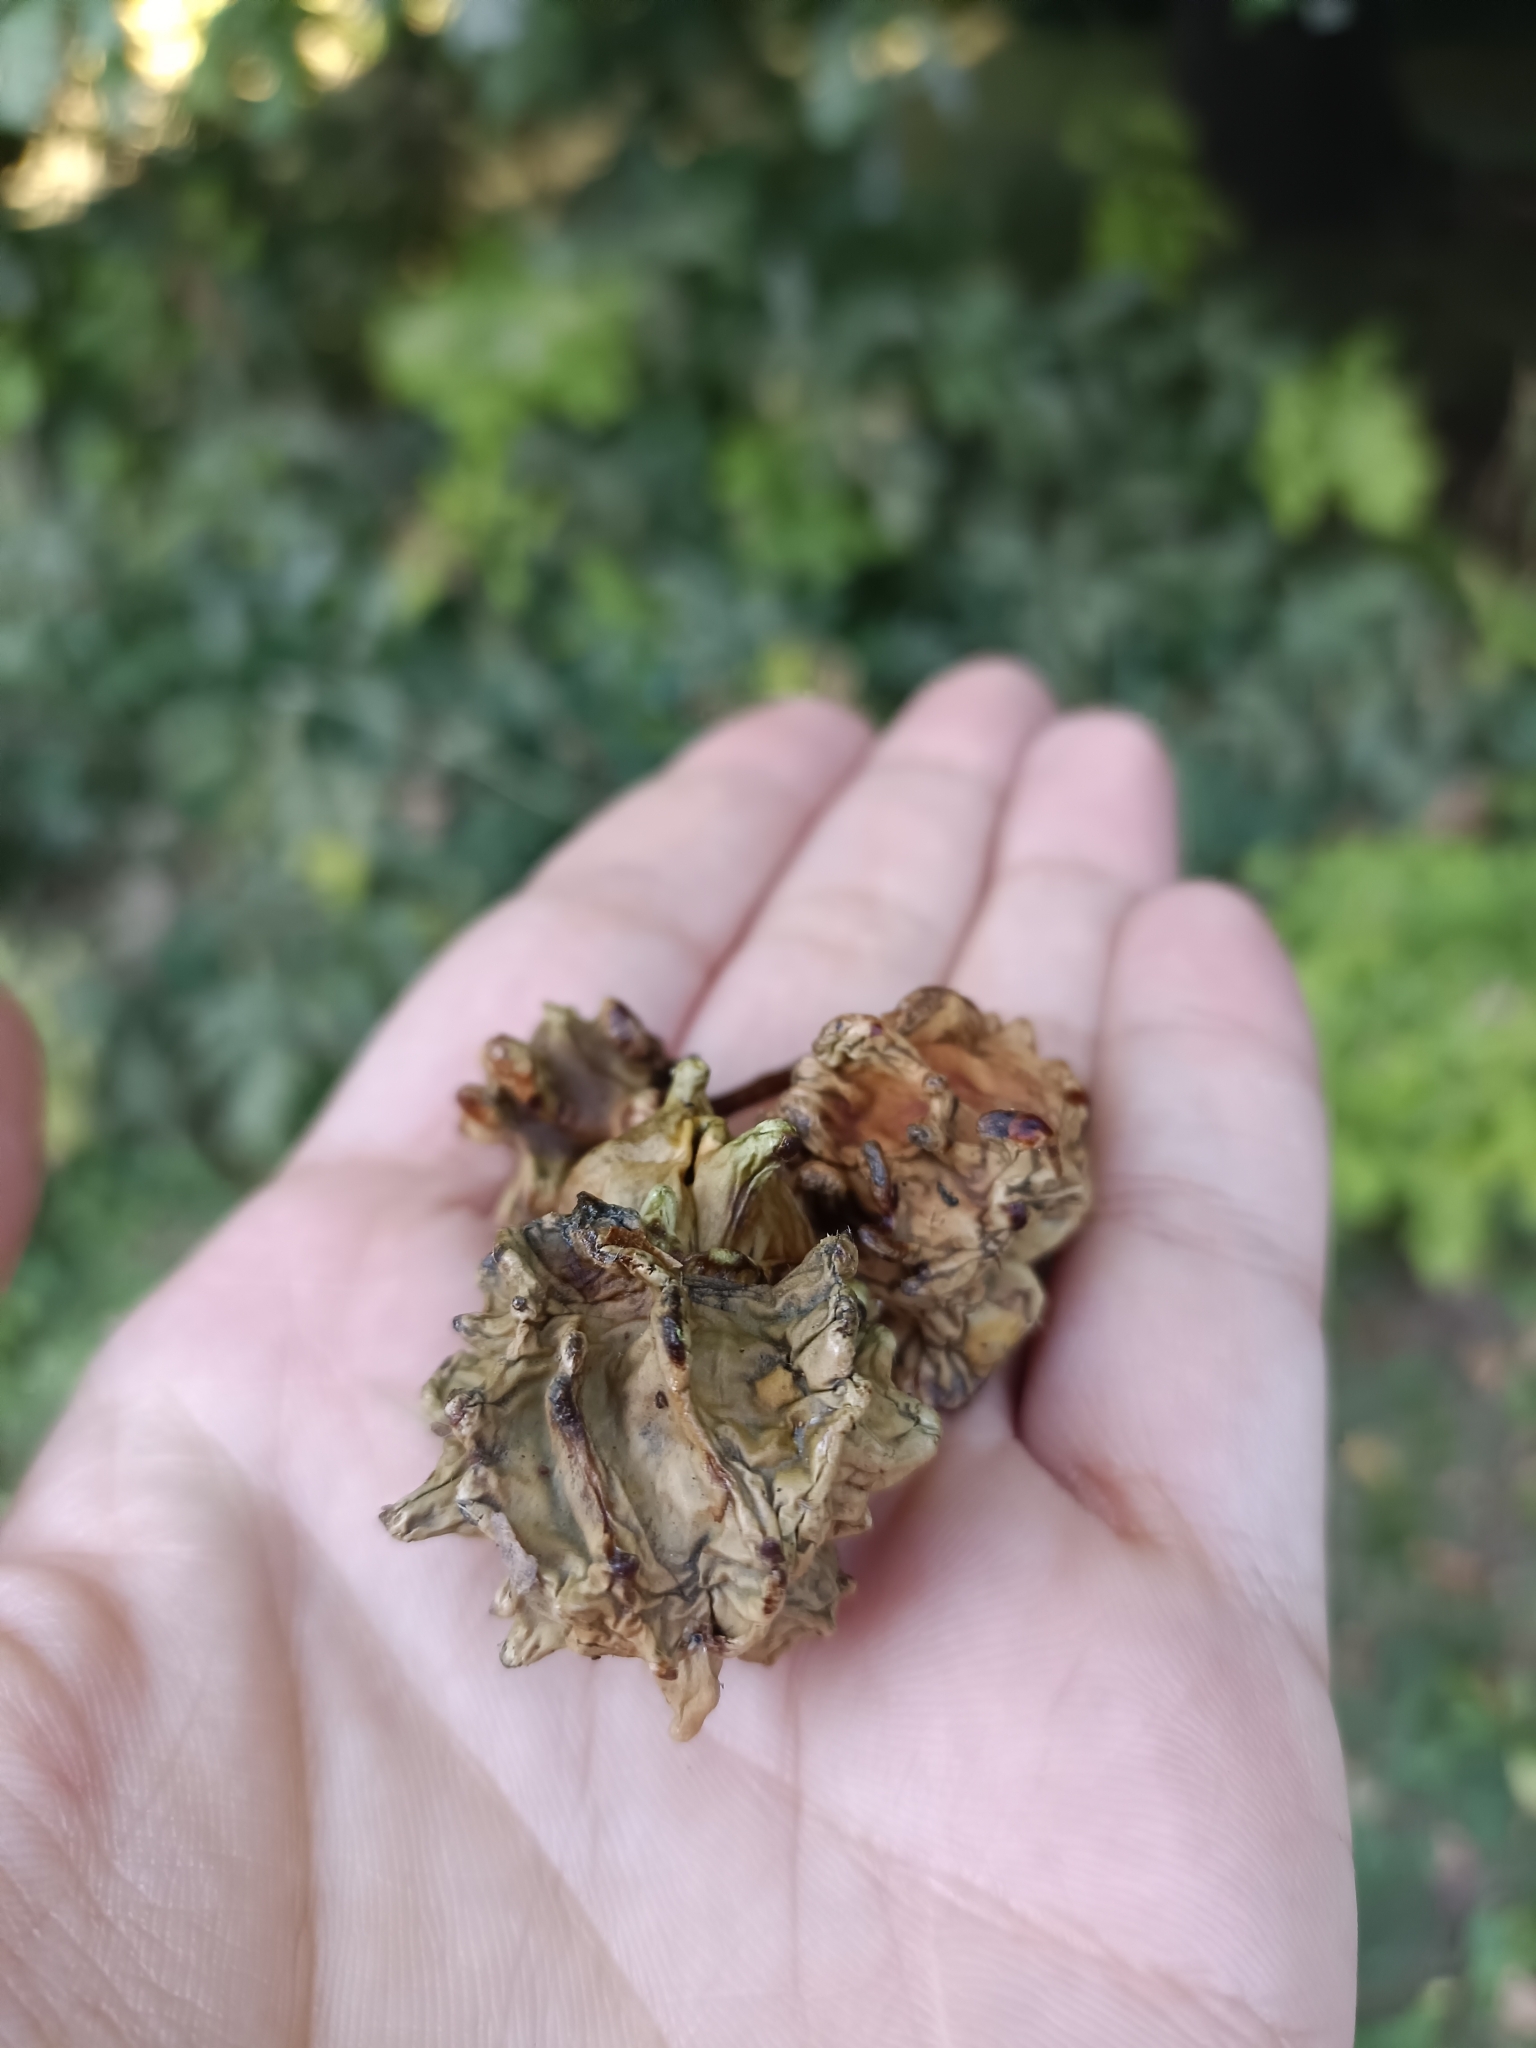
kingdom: Animalia
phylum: Arthropoda
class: Insecta
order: Hymenoptera
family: Cynipidae
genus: Andricus
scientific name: Andricus quercuscalicis
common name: Knopper gall
